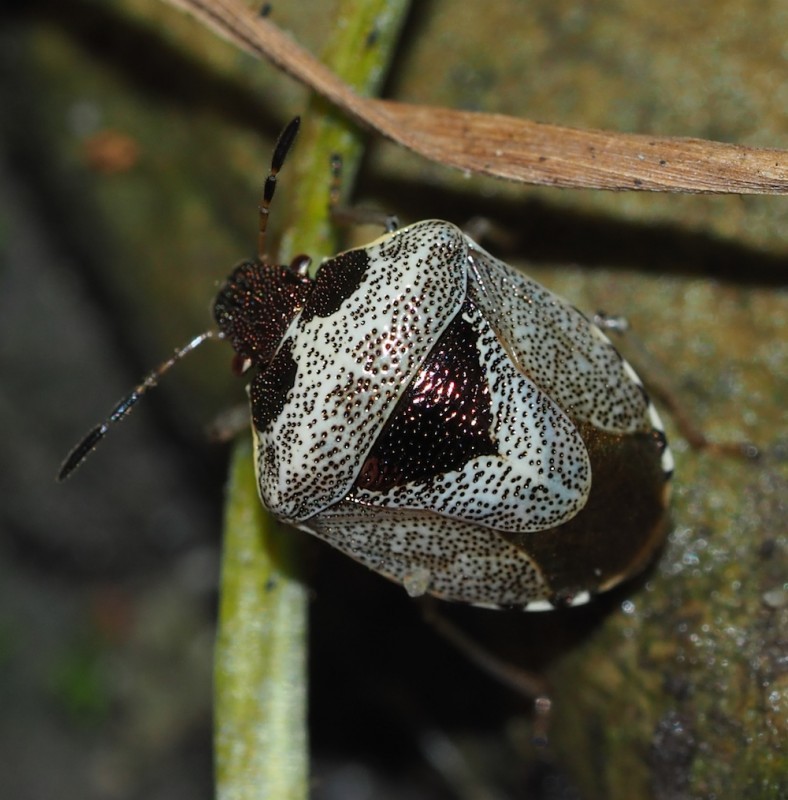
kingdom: Animalia
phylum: Arthropoda
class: Insecta
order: Hemiptera
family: Pentatomidae
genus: Eysarcoris
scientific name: Eysarcoris venustissimus
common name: Woundwort shieldbug
